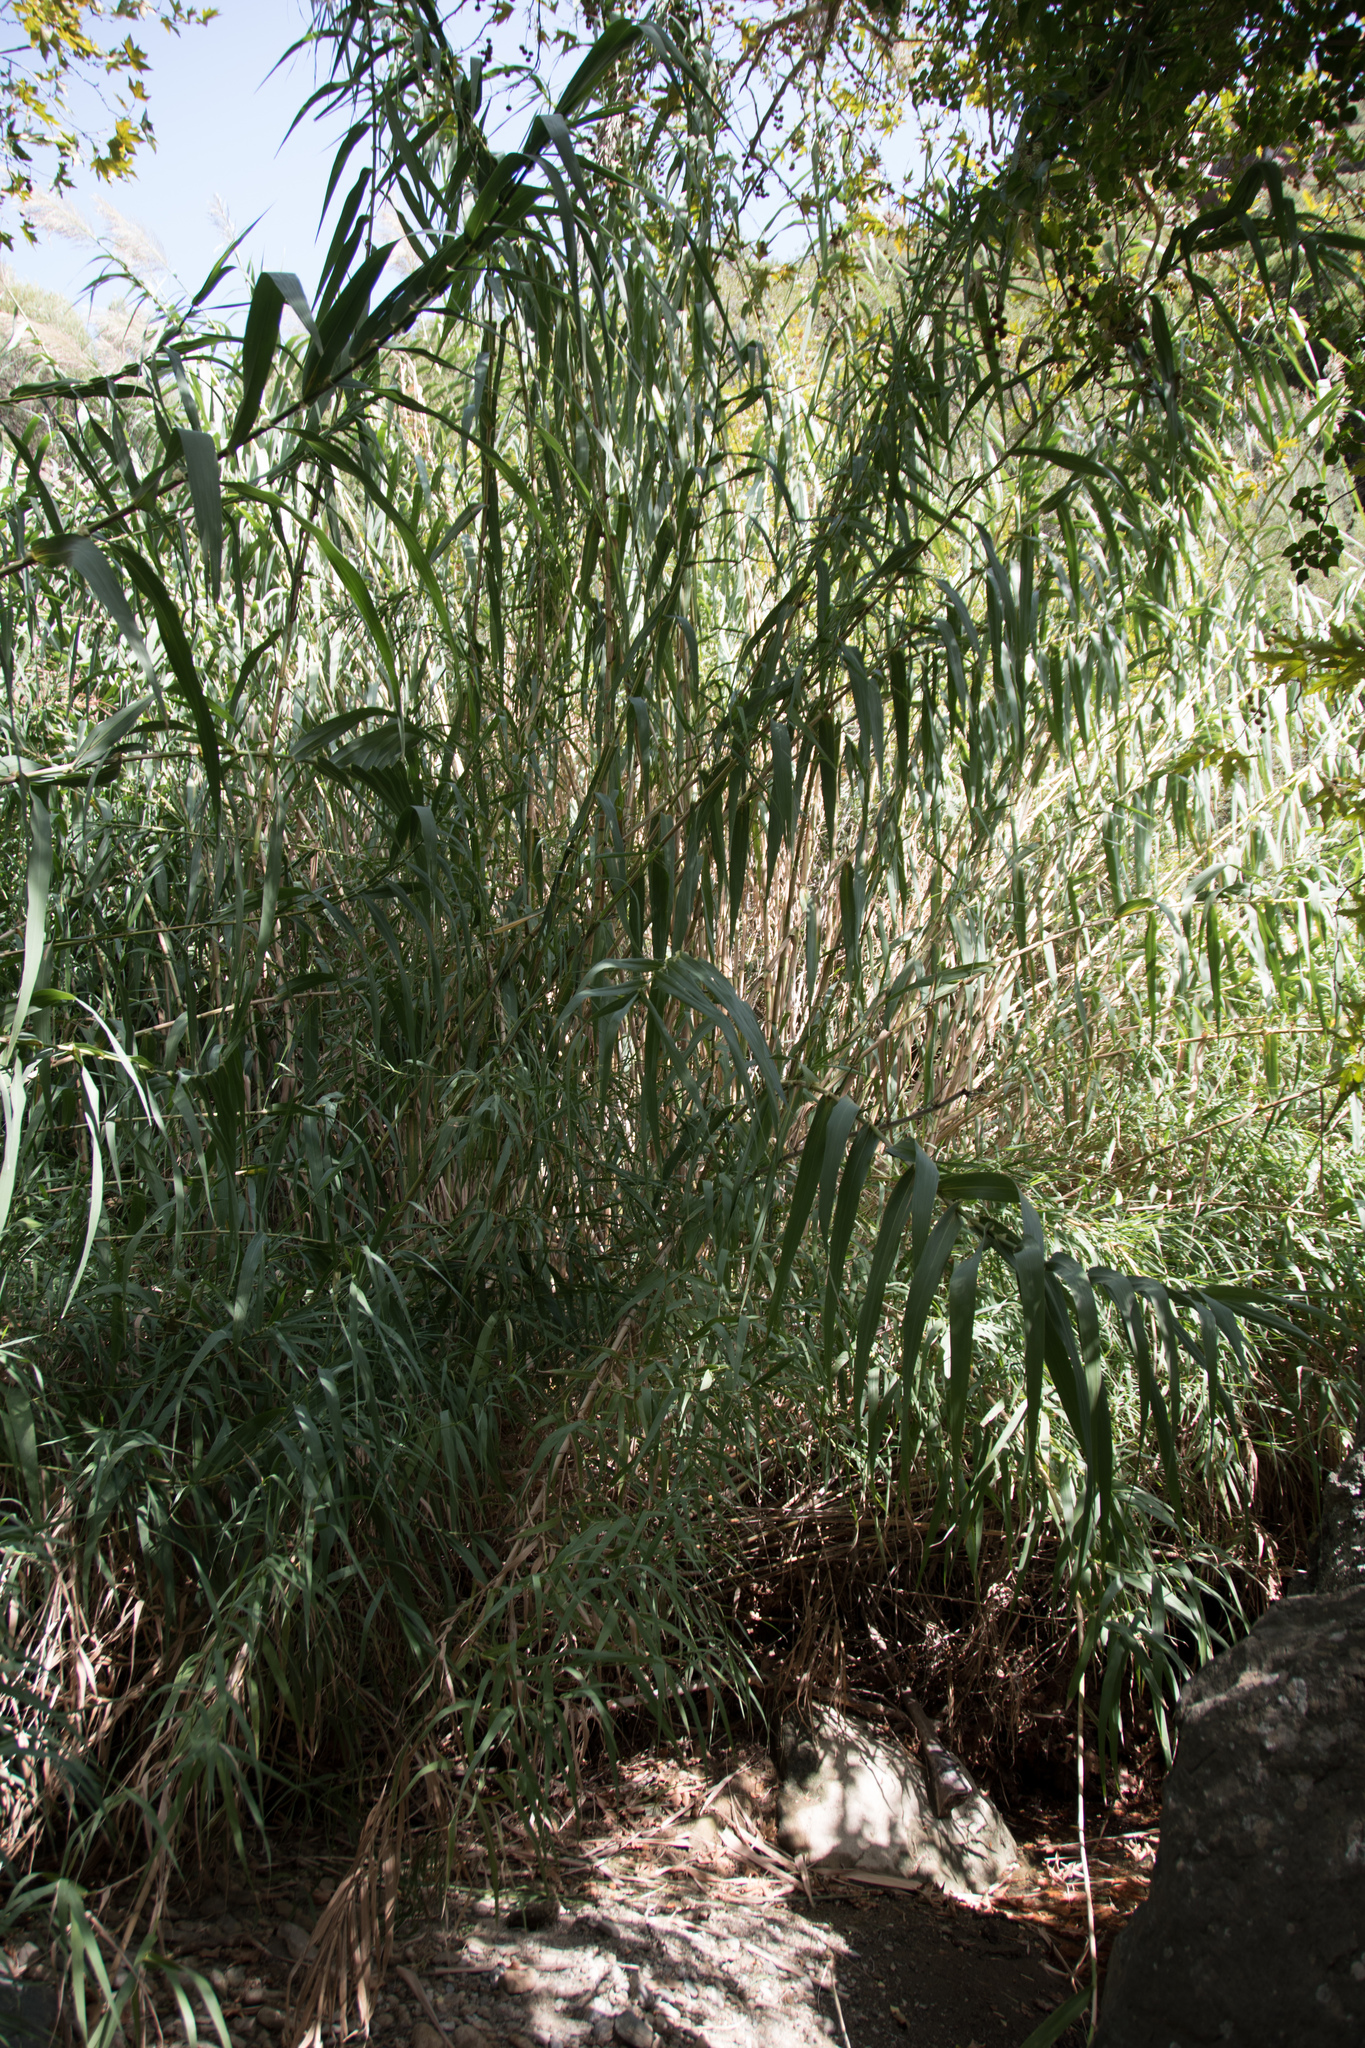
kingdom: Plantae
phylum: Tracheophyta
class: Liliopsida
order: Poales
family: Poaceae
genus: Arundo
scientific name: Arundo donax
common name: Giant reed
